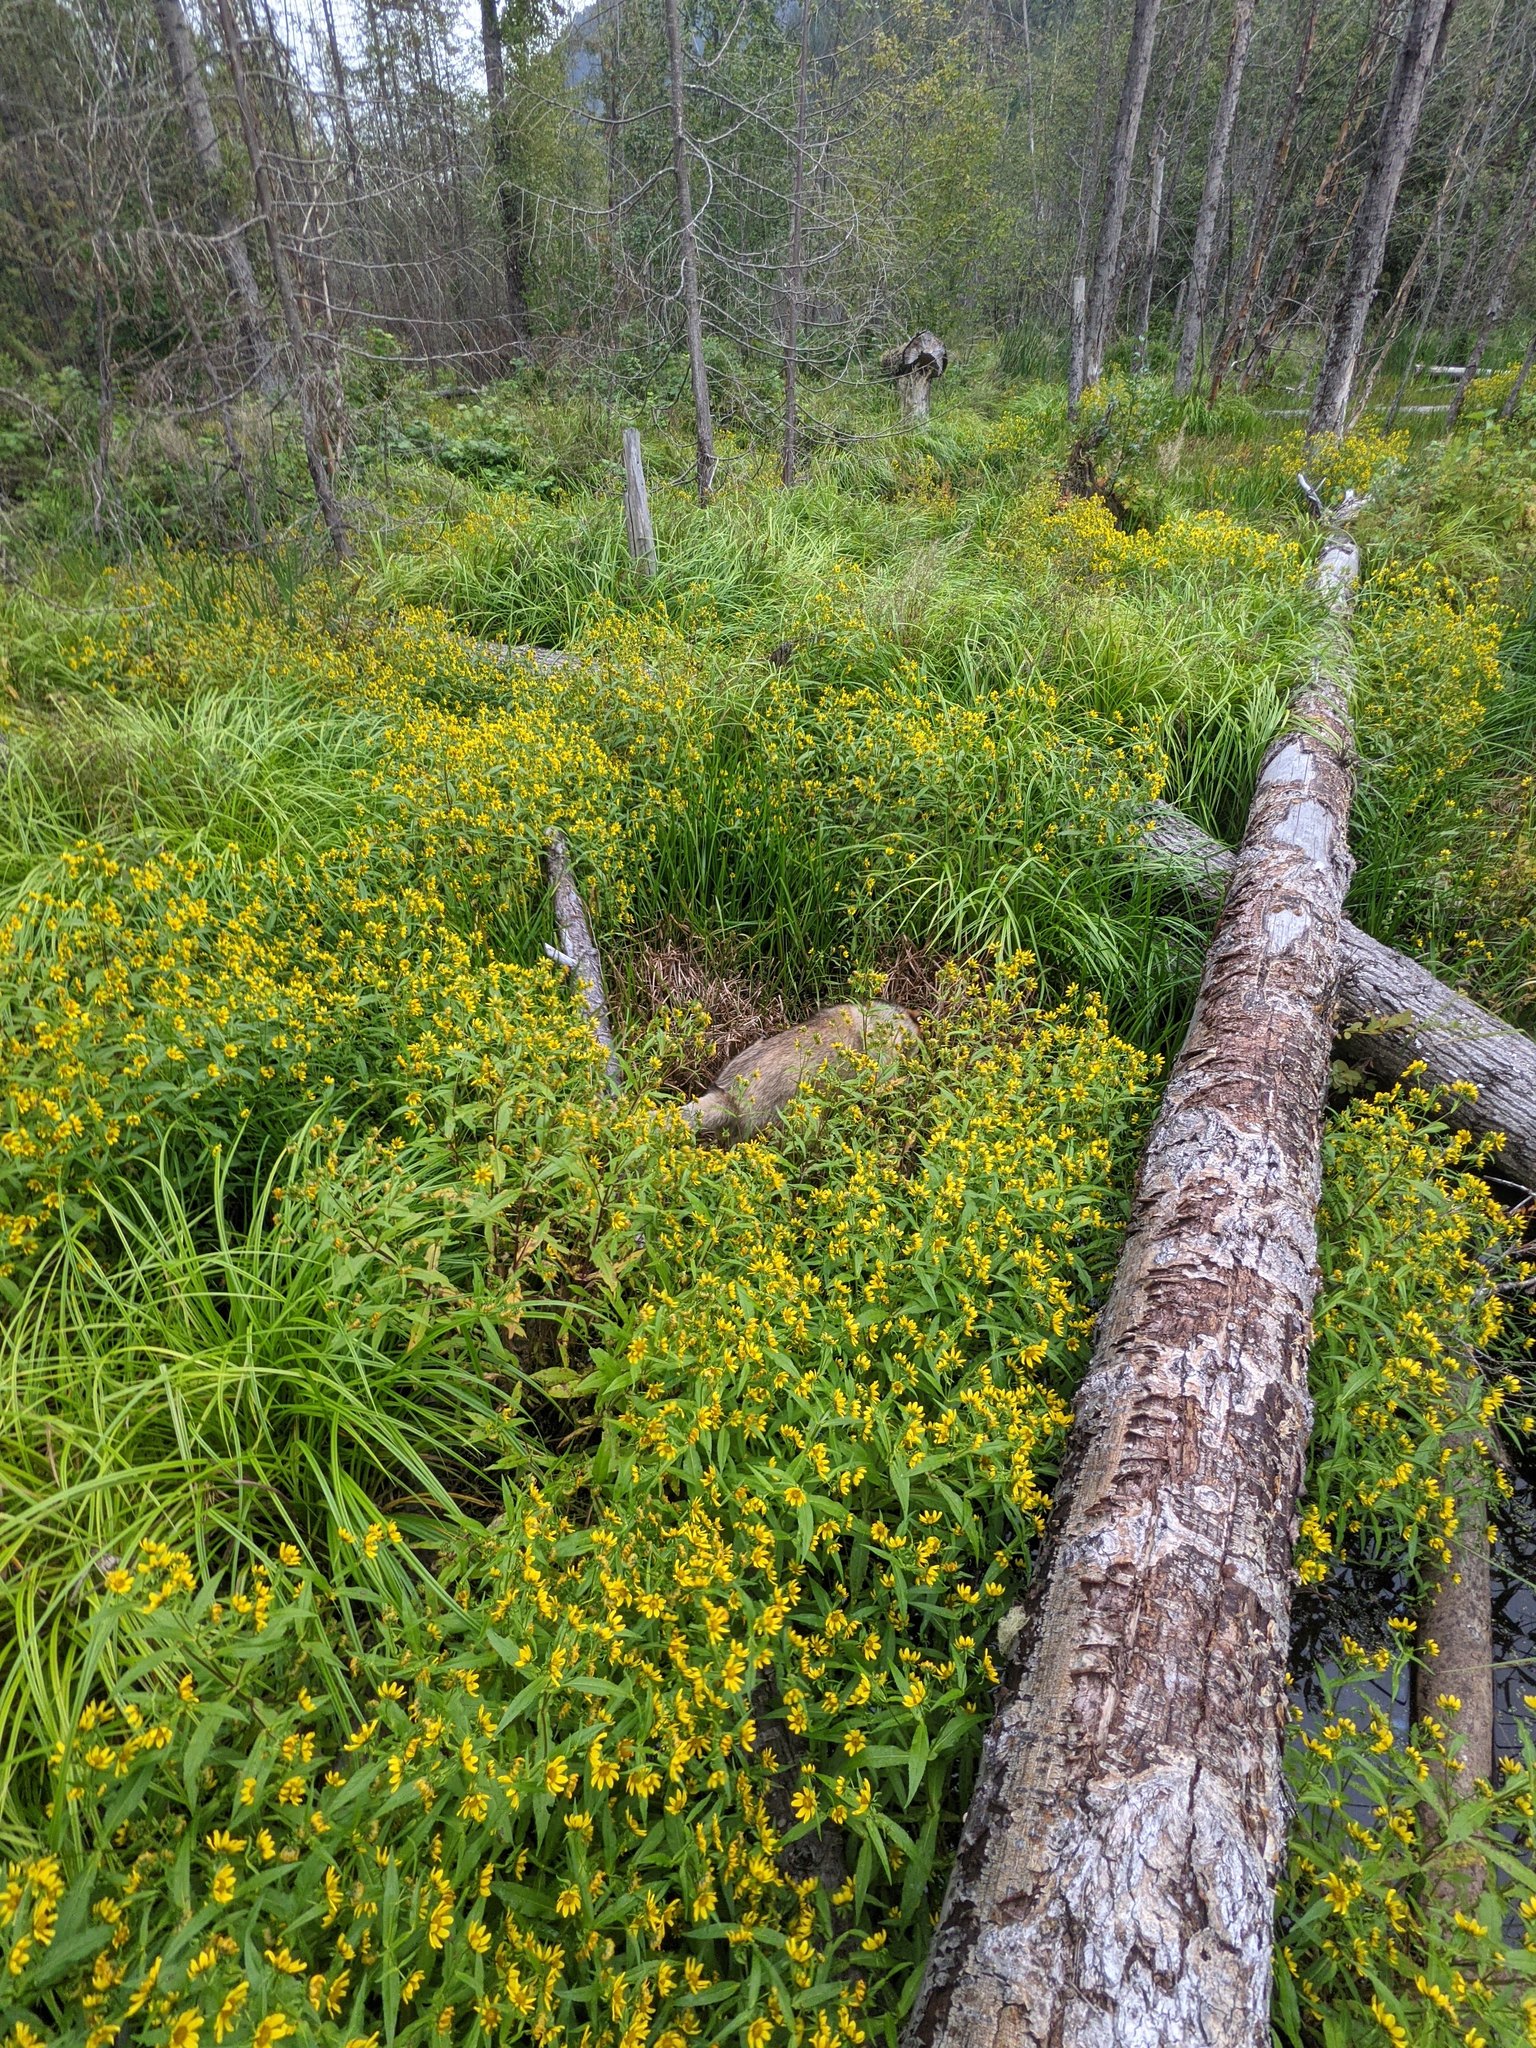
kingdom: Plantae
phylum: Tracheophyta
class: Magnoliopsida
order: Asterales
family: Asteraceae
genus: Bidens
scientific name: Bidens cernua
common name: Nodding bur-marigold
